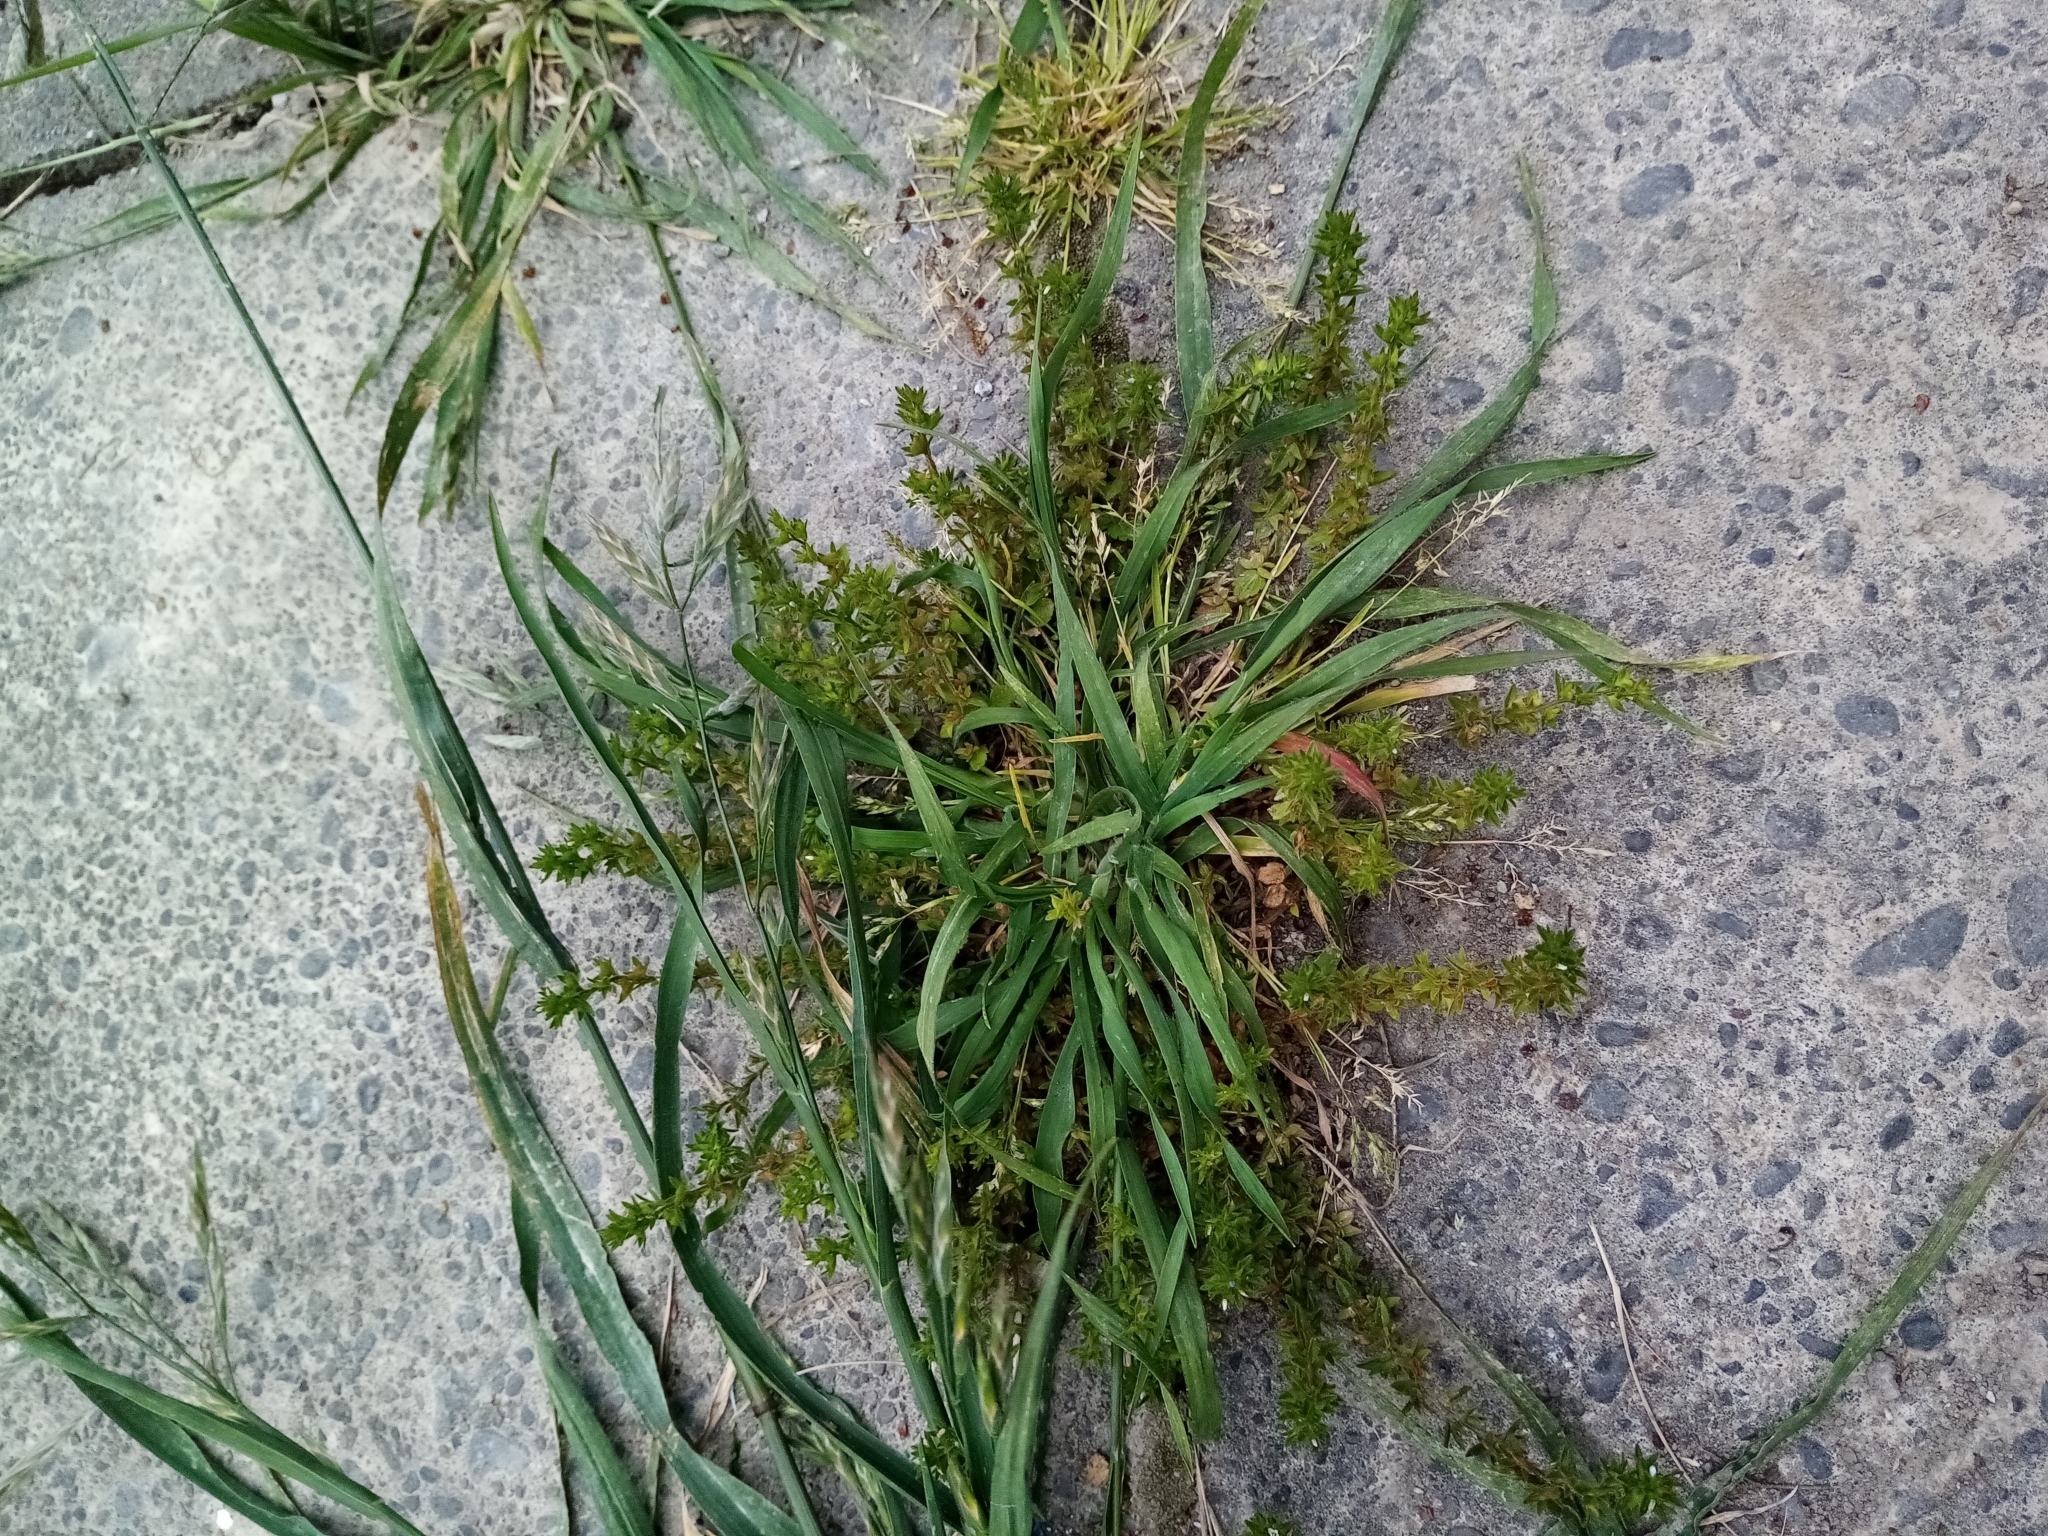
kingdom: Plantae
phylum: Tracheophyta
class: Magnoliopsida
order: Lamiales
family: Plantaginaceae
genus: Veronica
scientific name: Veronica arvensis
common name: Corn speedwell
